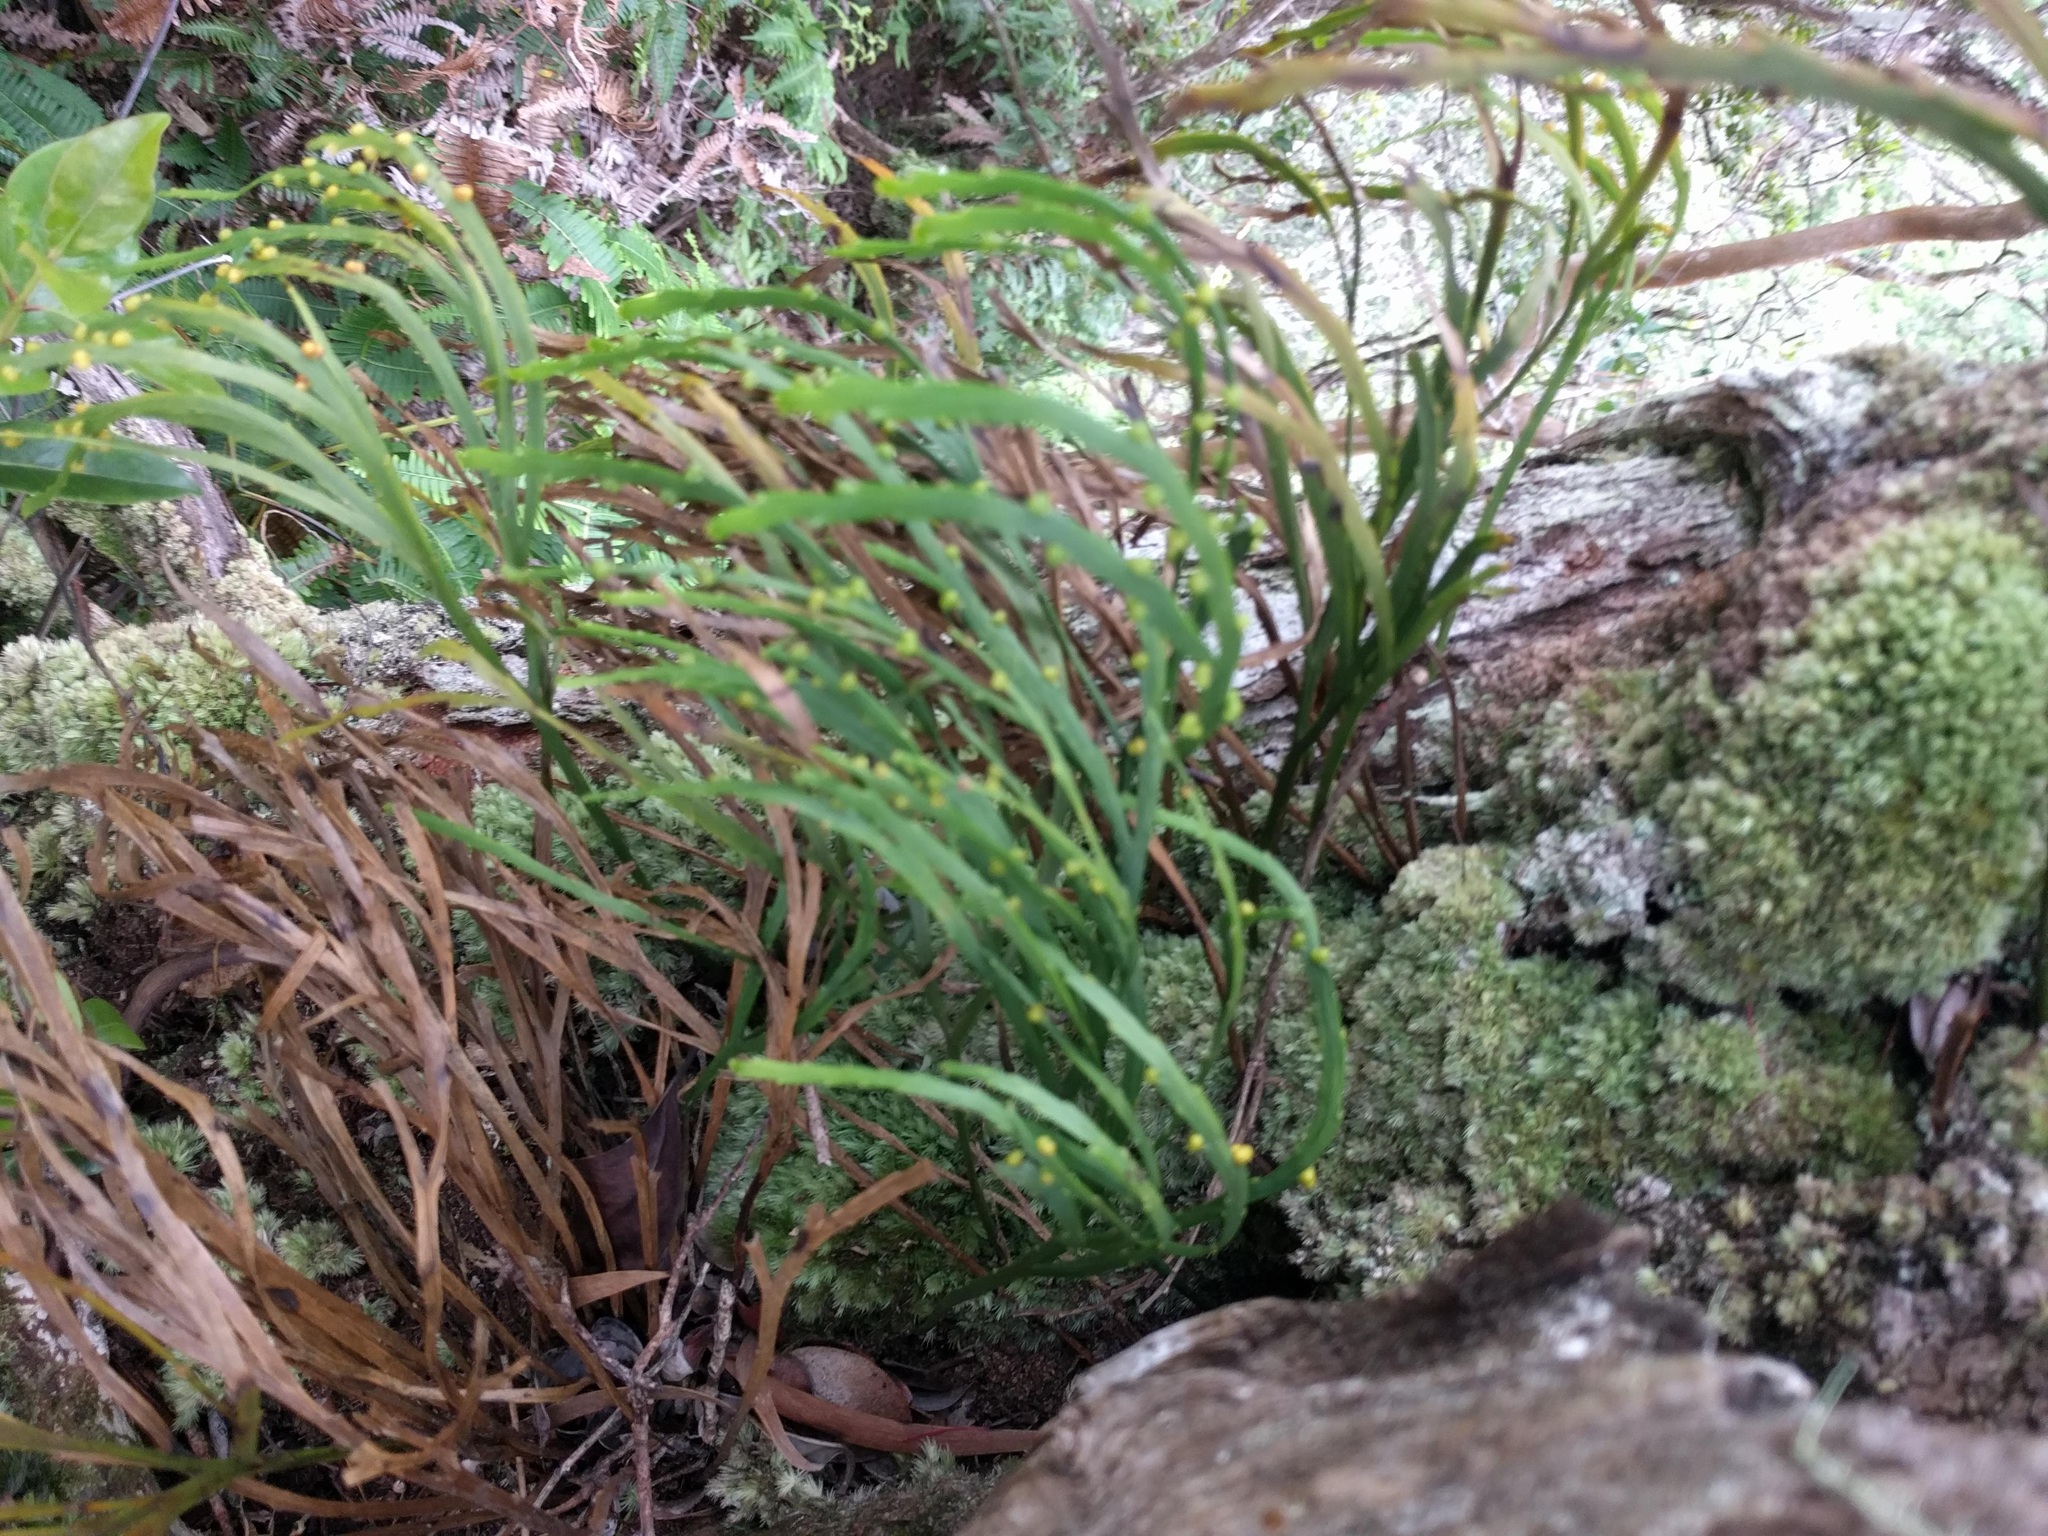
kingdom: Plantae
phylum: Tracheophyta
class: Polypodiopsida
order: Psilotales
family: Psilotaceae
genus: Psilotum
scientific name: Psilotum complanatum
